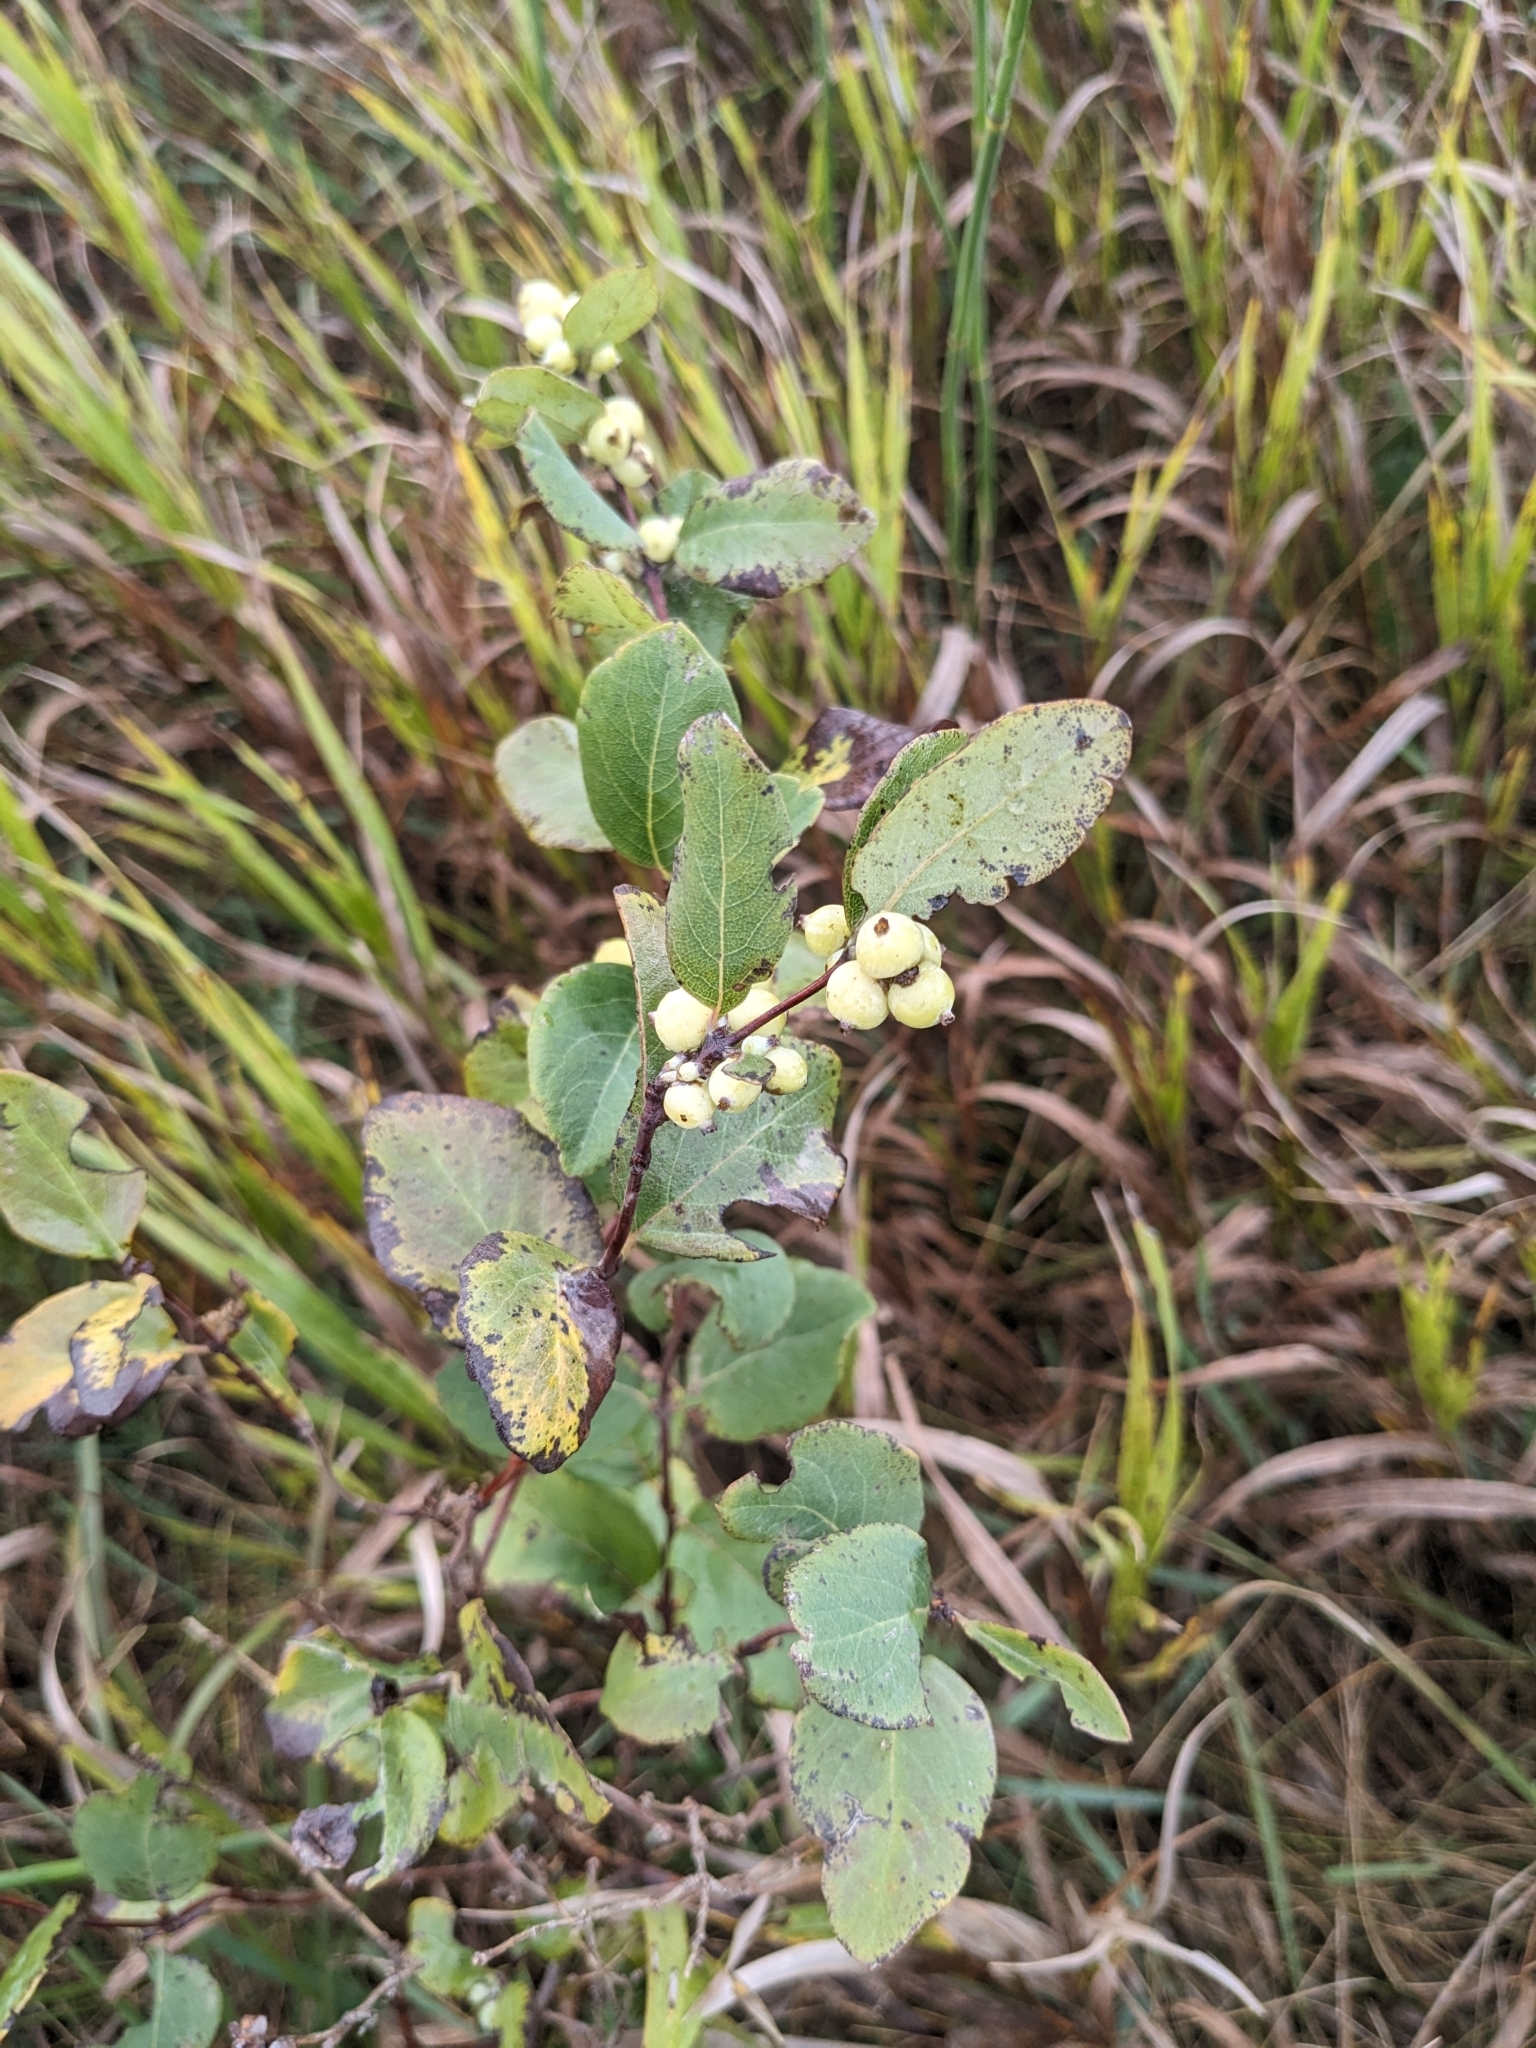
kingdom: Plantae
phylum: Tracheophyta
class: Magnoliopsida
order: Dipsacales
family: Caprifoliaceae
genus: Symphoricarpos
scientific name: Symphoricarpos occidentalis
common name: Wolfberry
